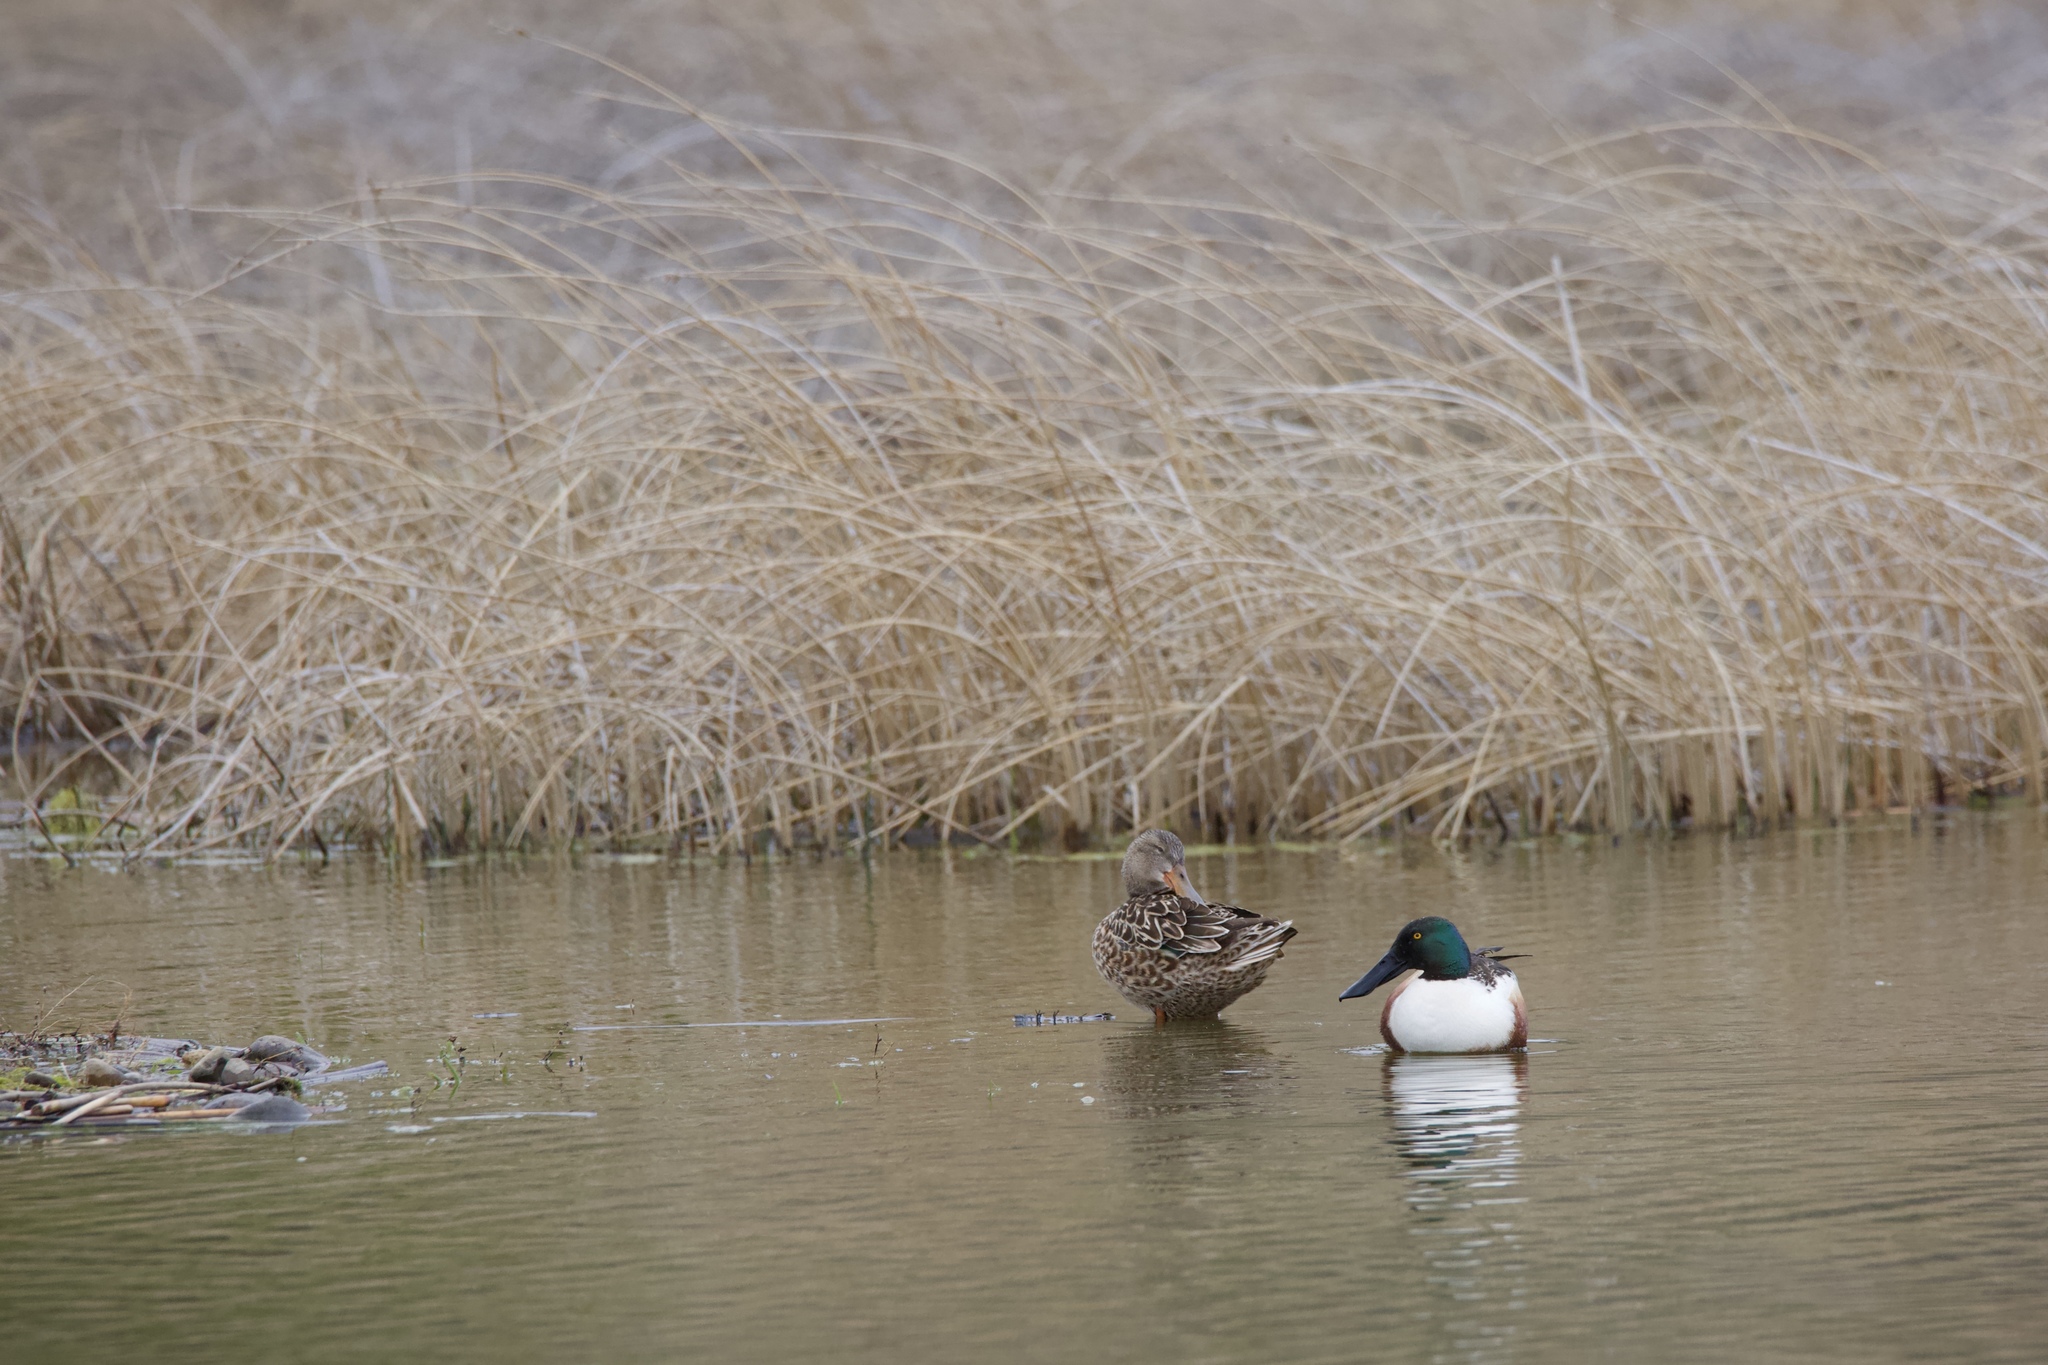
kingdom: Animalia
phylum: Chordata
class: Aves
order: Anseriformes
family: Anatidae
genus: Spatula
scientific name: Spatula clypeata
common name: Northern shoveler
